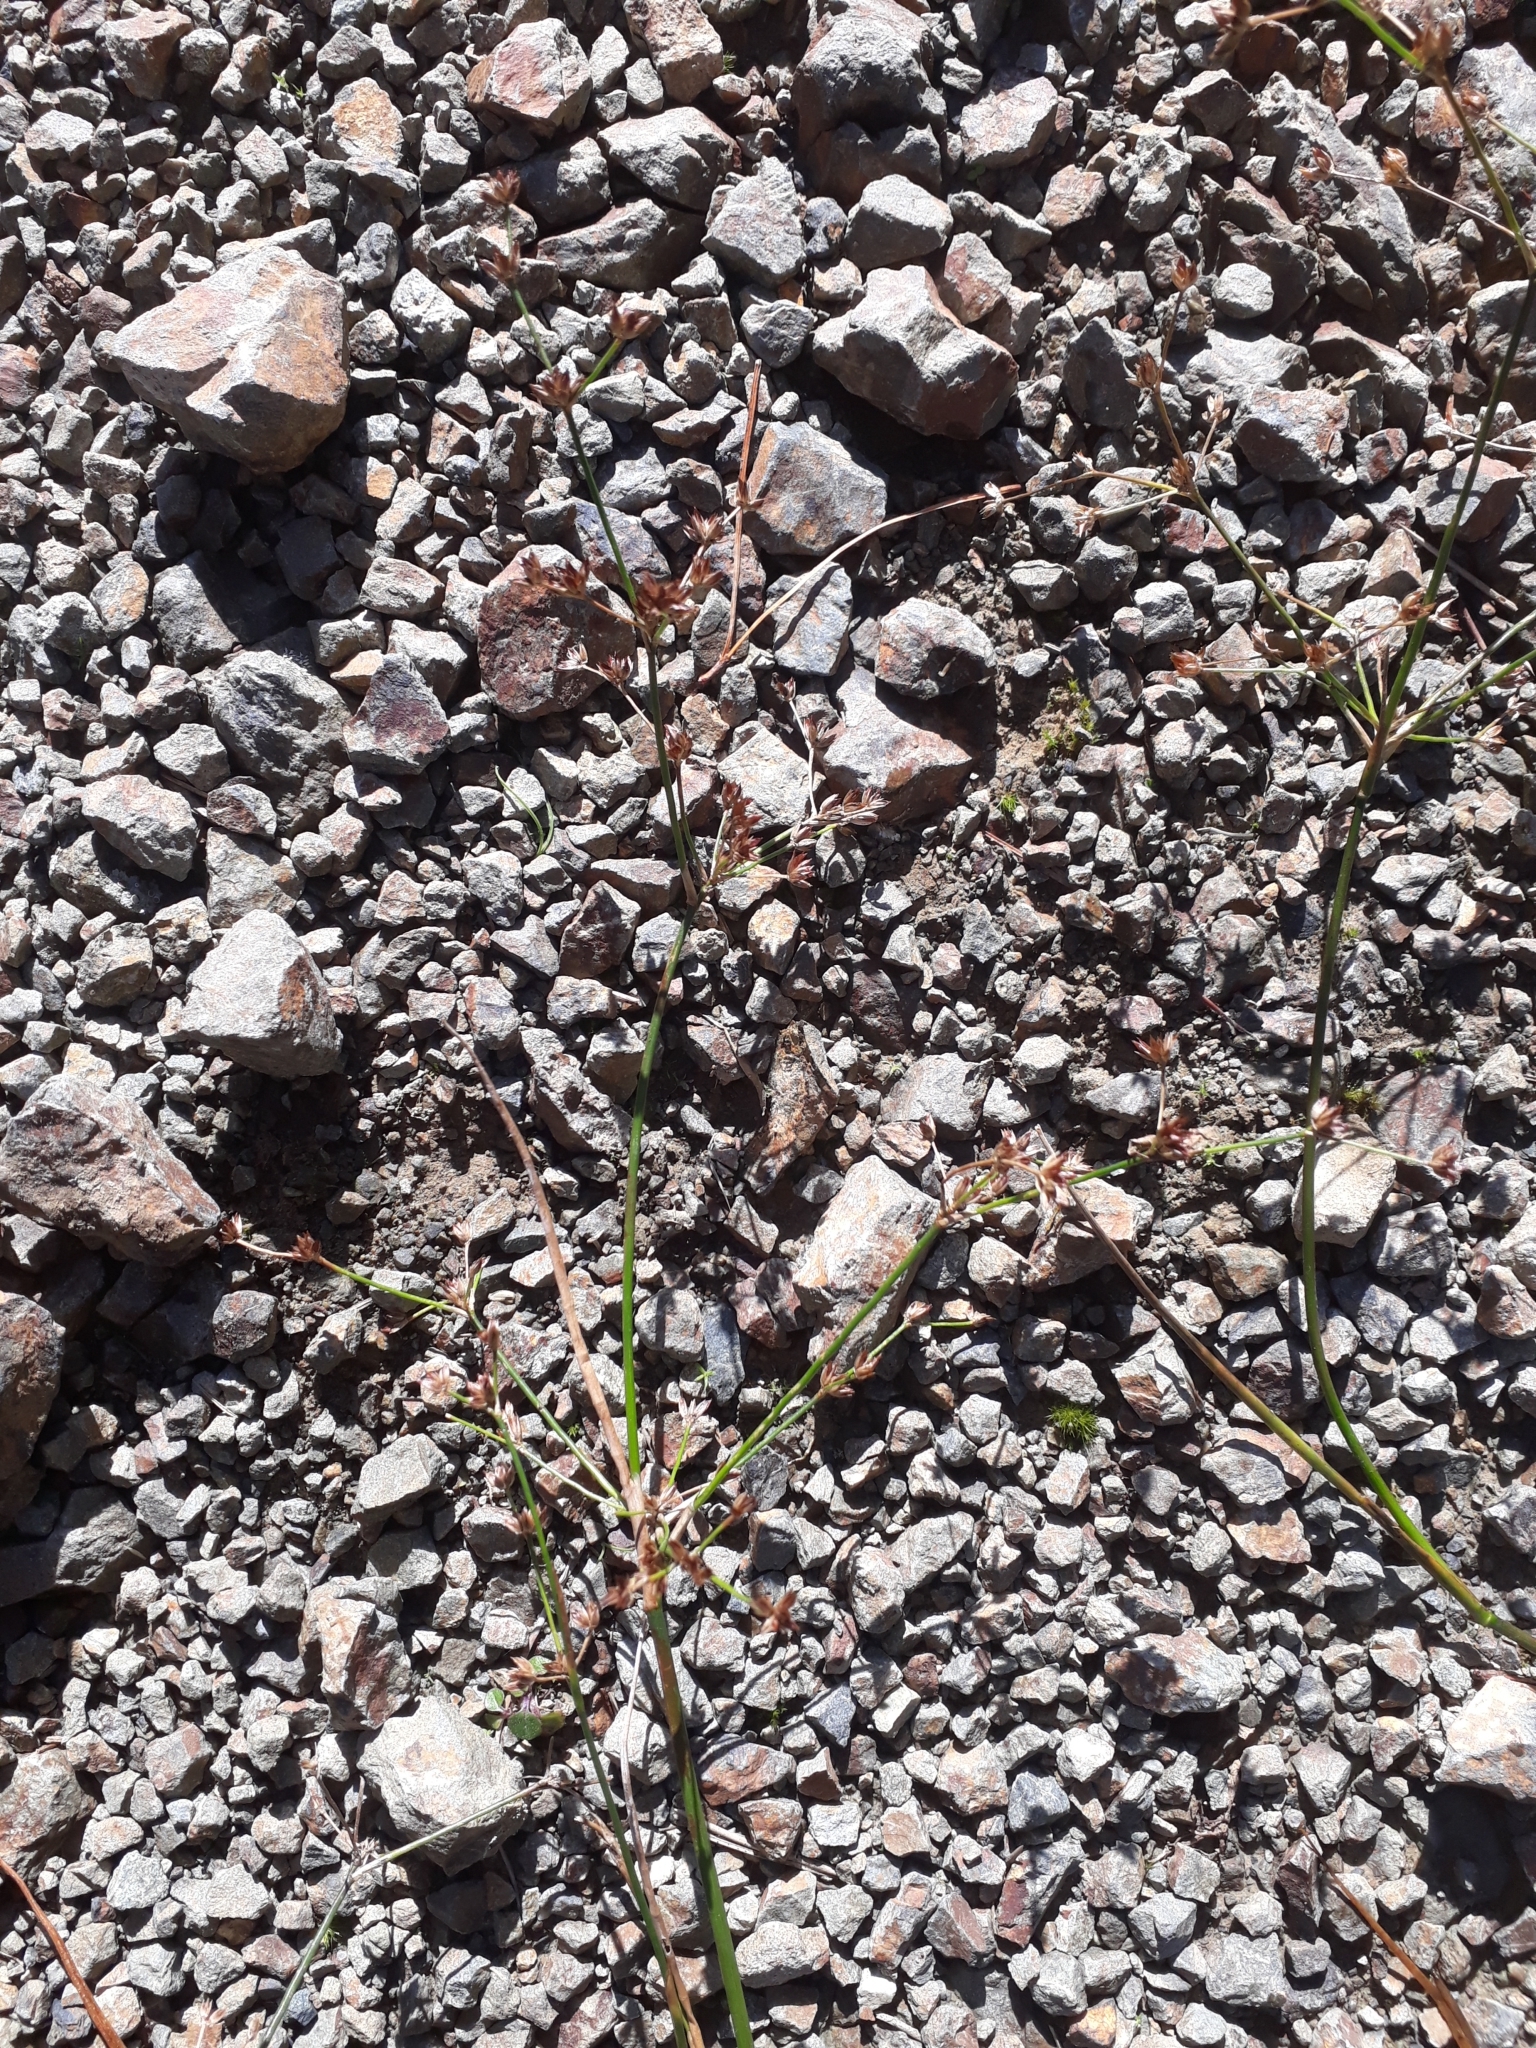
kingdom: Plantae
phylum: Tracheophyta
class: Liliopsida
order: Poales
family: Juncaceae
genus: Juncus
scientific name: Juncus articulatus
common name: Jointed rush
